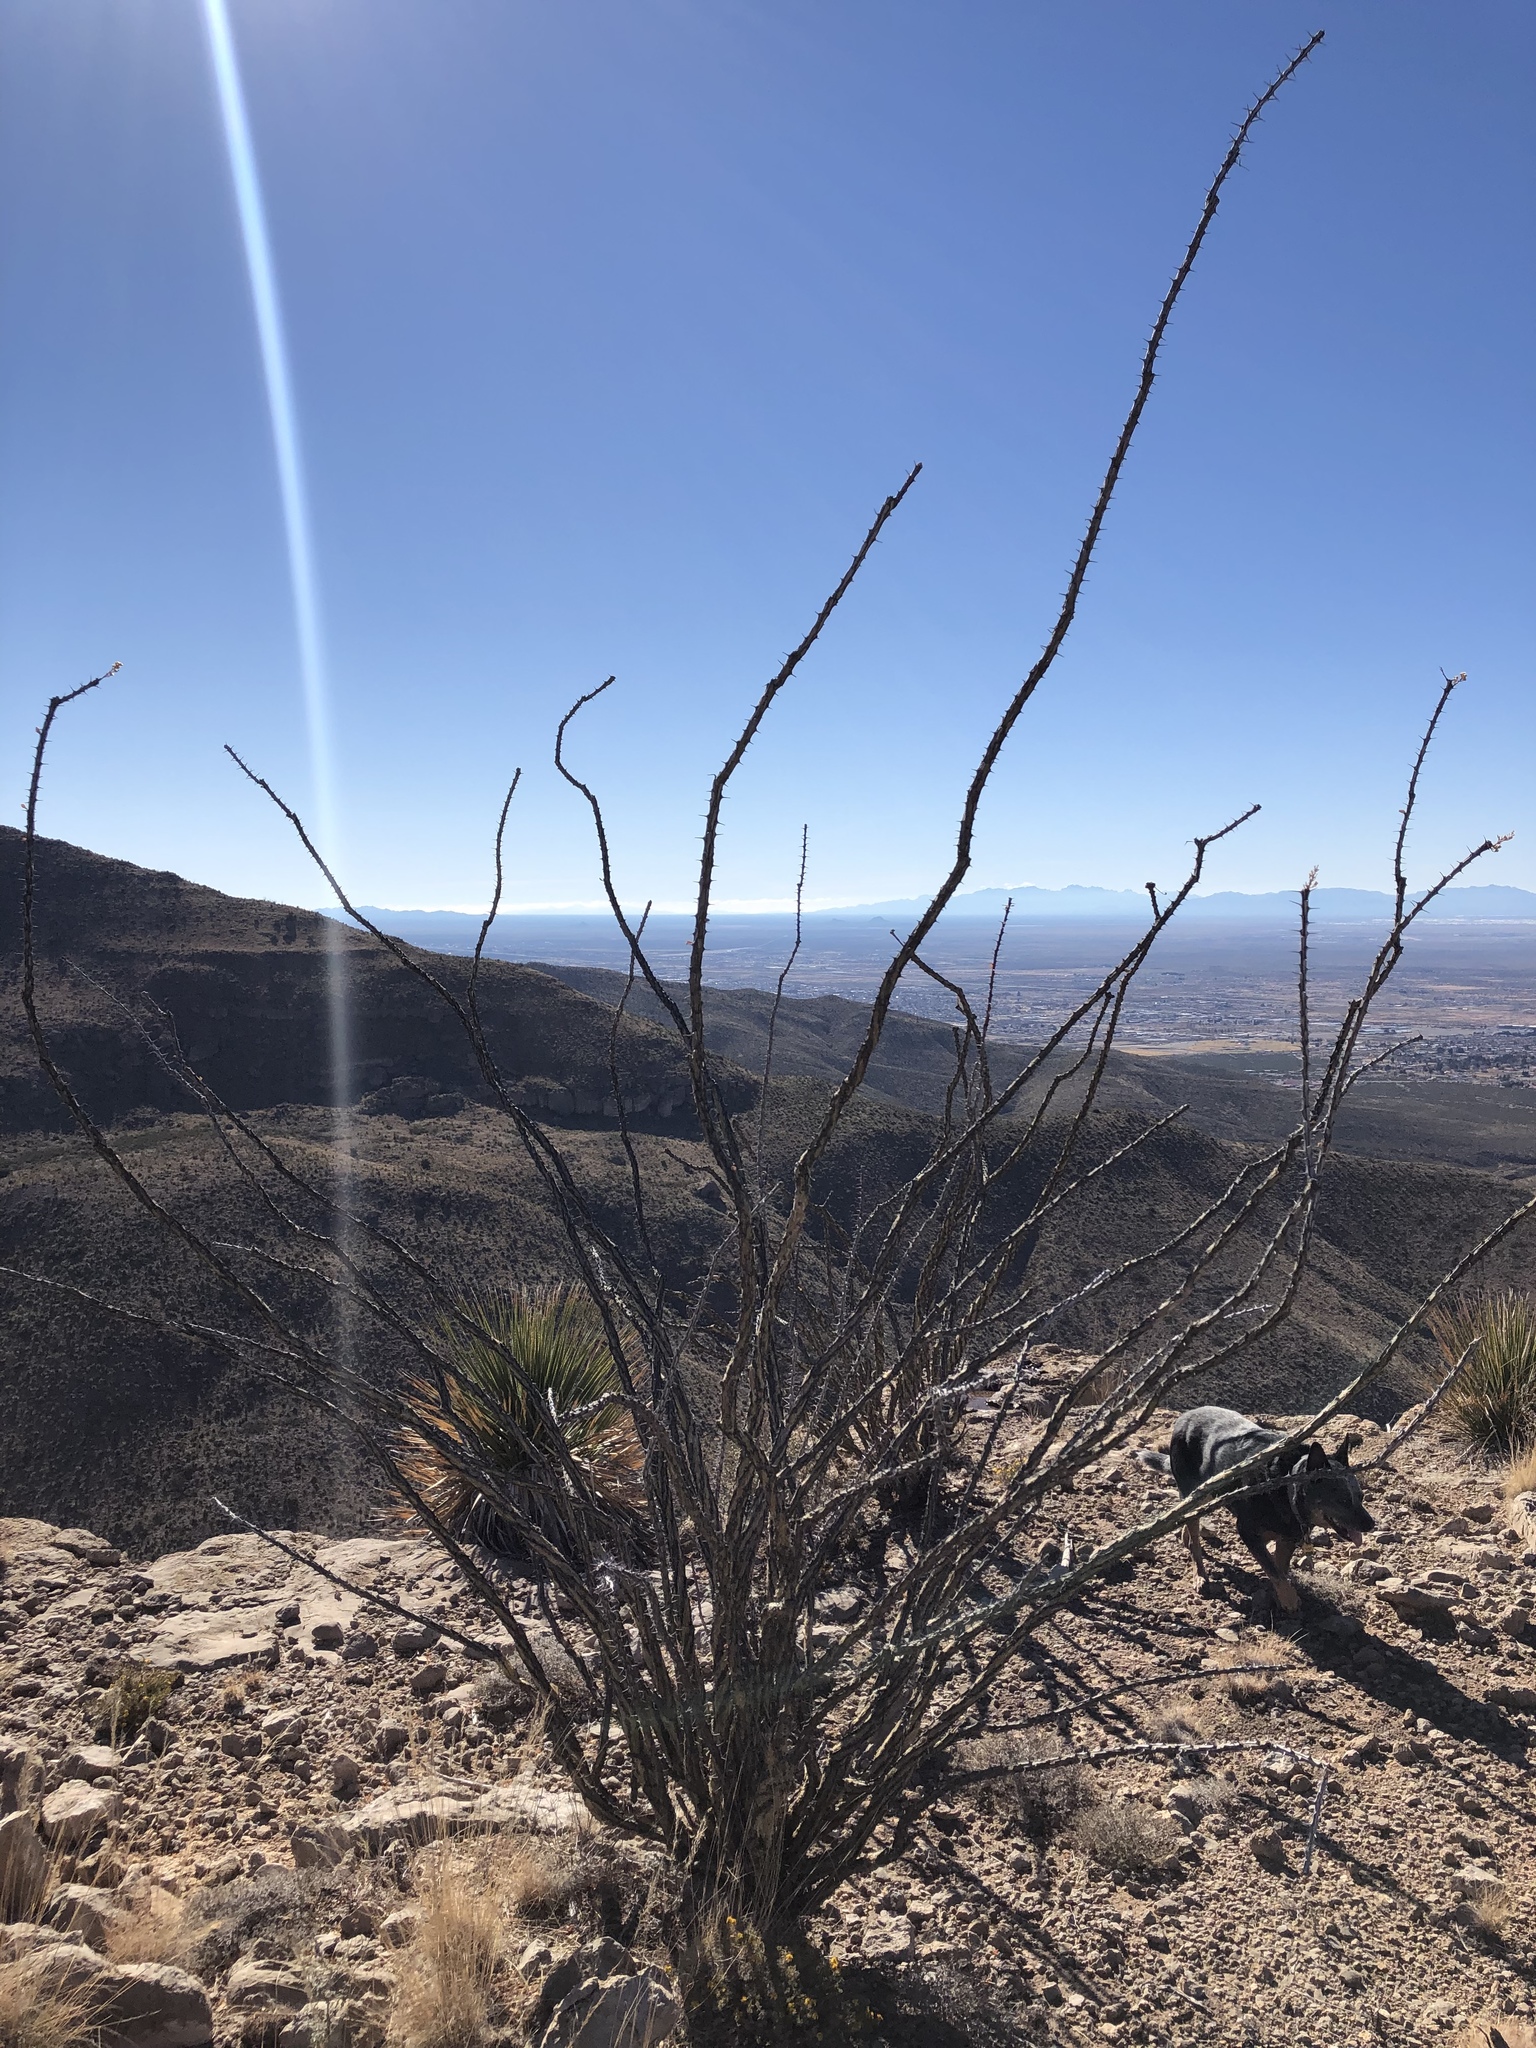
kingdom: Plantae
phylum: Tracheophyta
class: Magnoliopsida
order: Ericales
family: Fouquieriaceae
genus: Fouquieria
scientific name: Fouquieria splendens
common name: Vine-cactus
